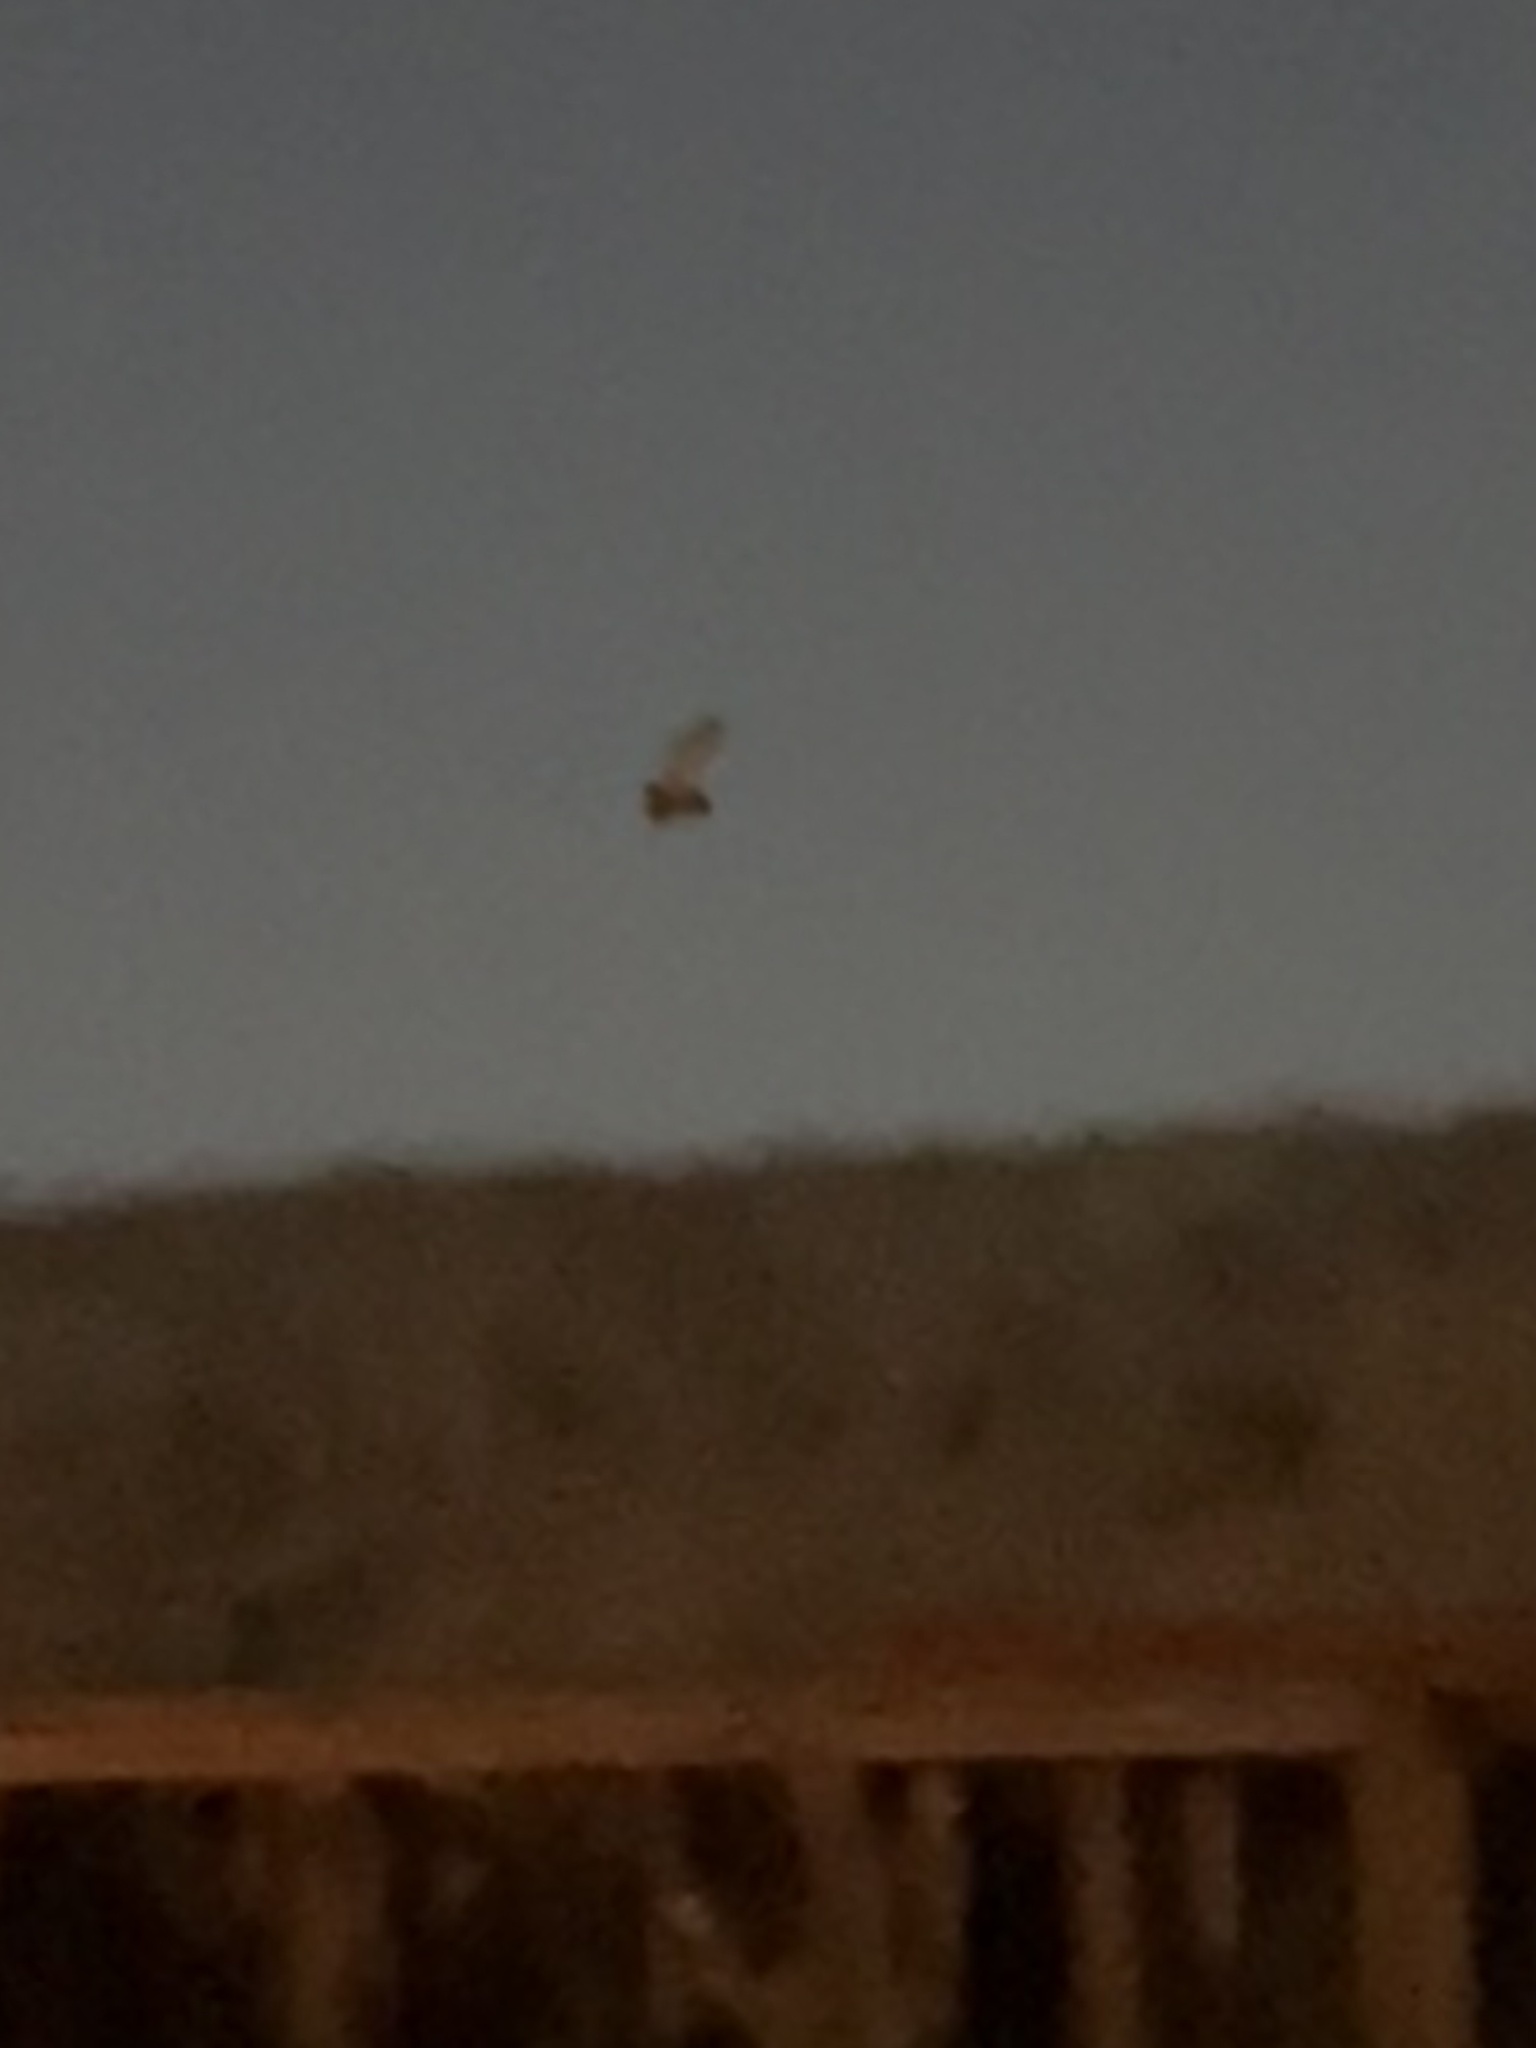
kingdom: Animalia
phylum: Chordata
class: Aves
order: Strigiformes
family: Tytonidae
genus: Tyto
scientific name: Tyto alba
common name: Barn owl
